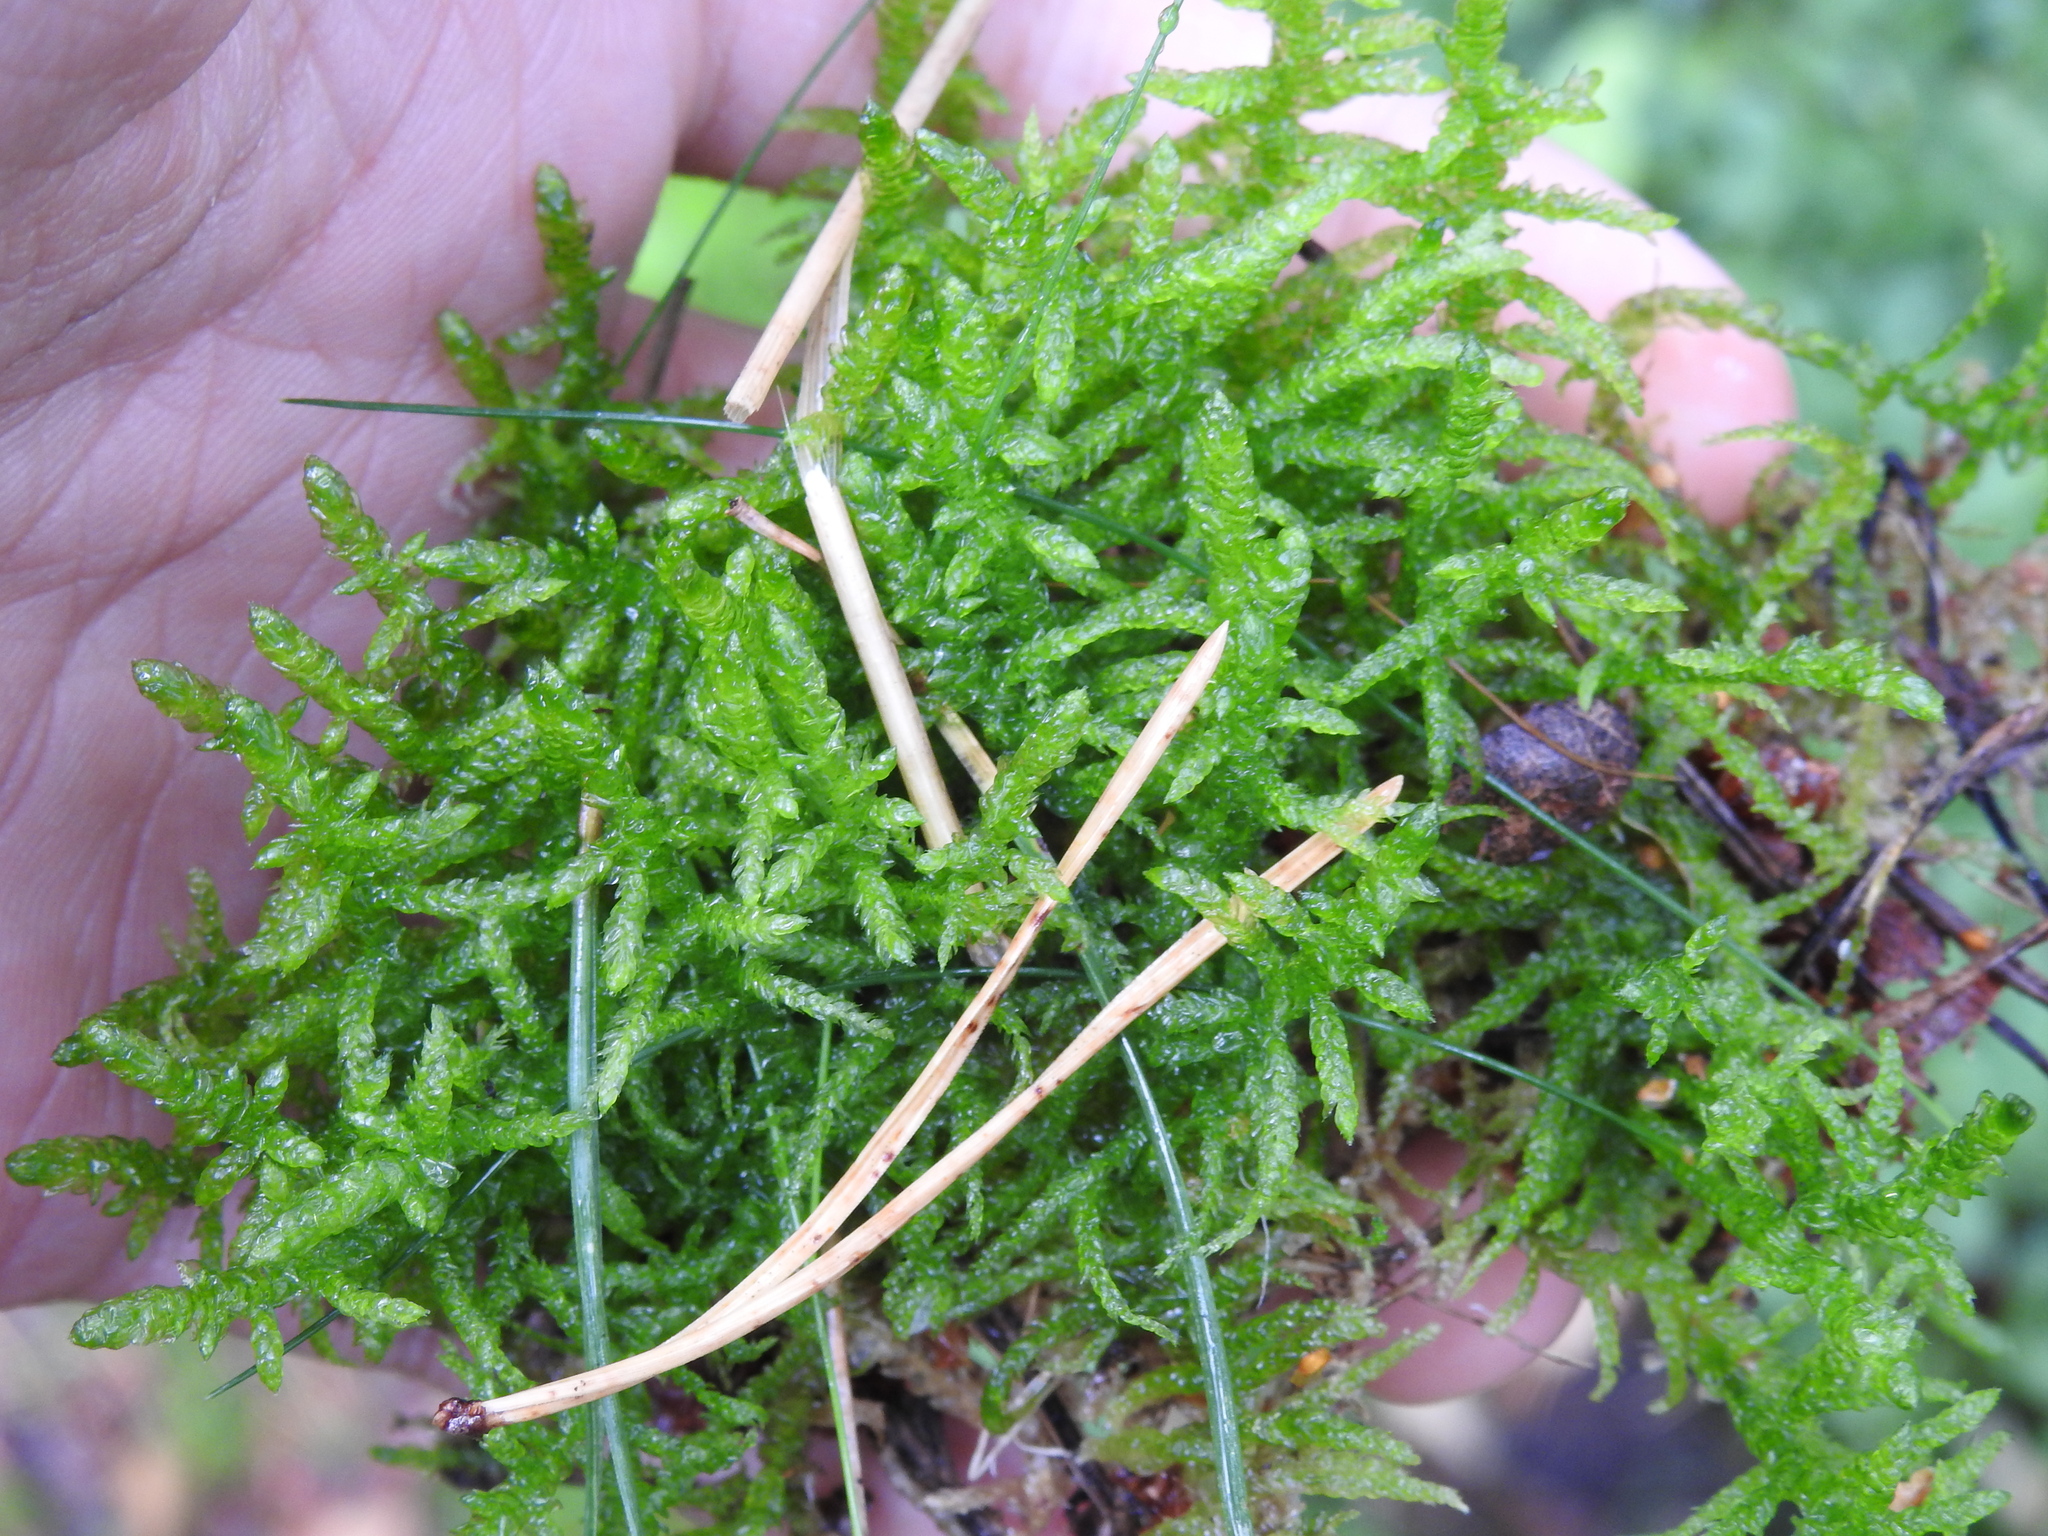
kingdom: Plantae
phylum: Bryophyta
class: Bryopsida
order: Hypnales
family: Brachytheciaceae
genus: Pseudoscleropodium
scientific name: Pseudoscleropodium purum
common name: Neat feather-moss
